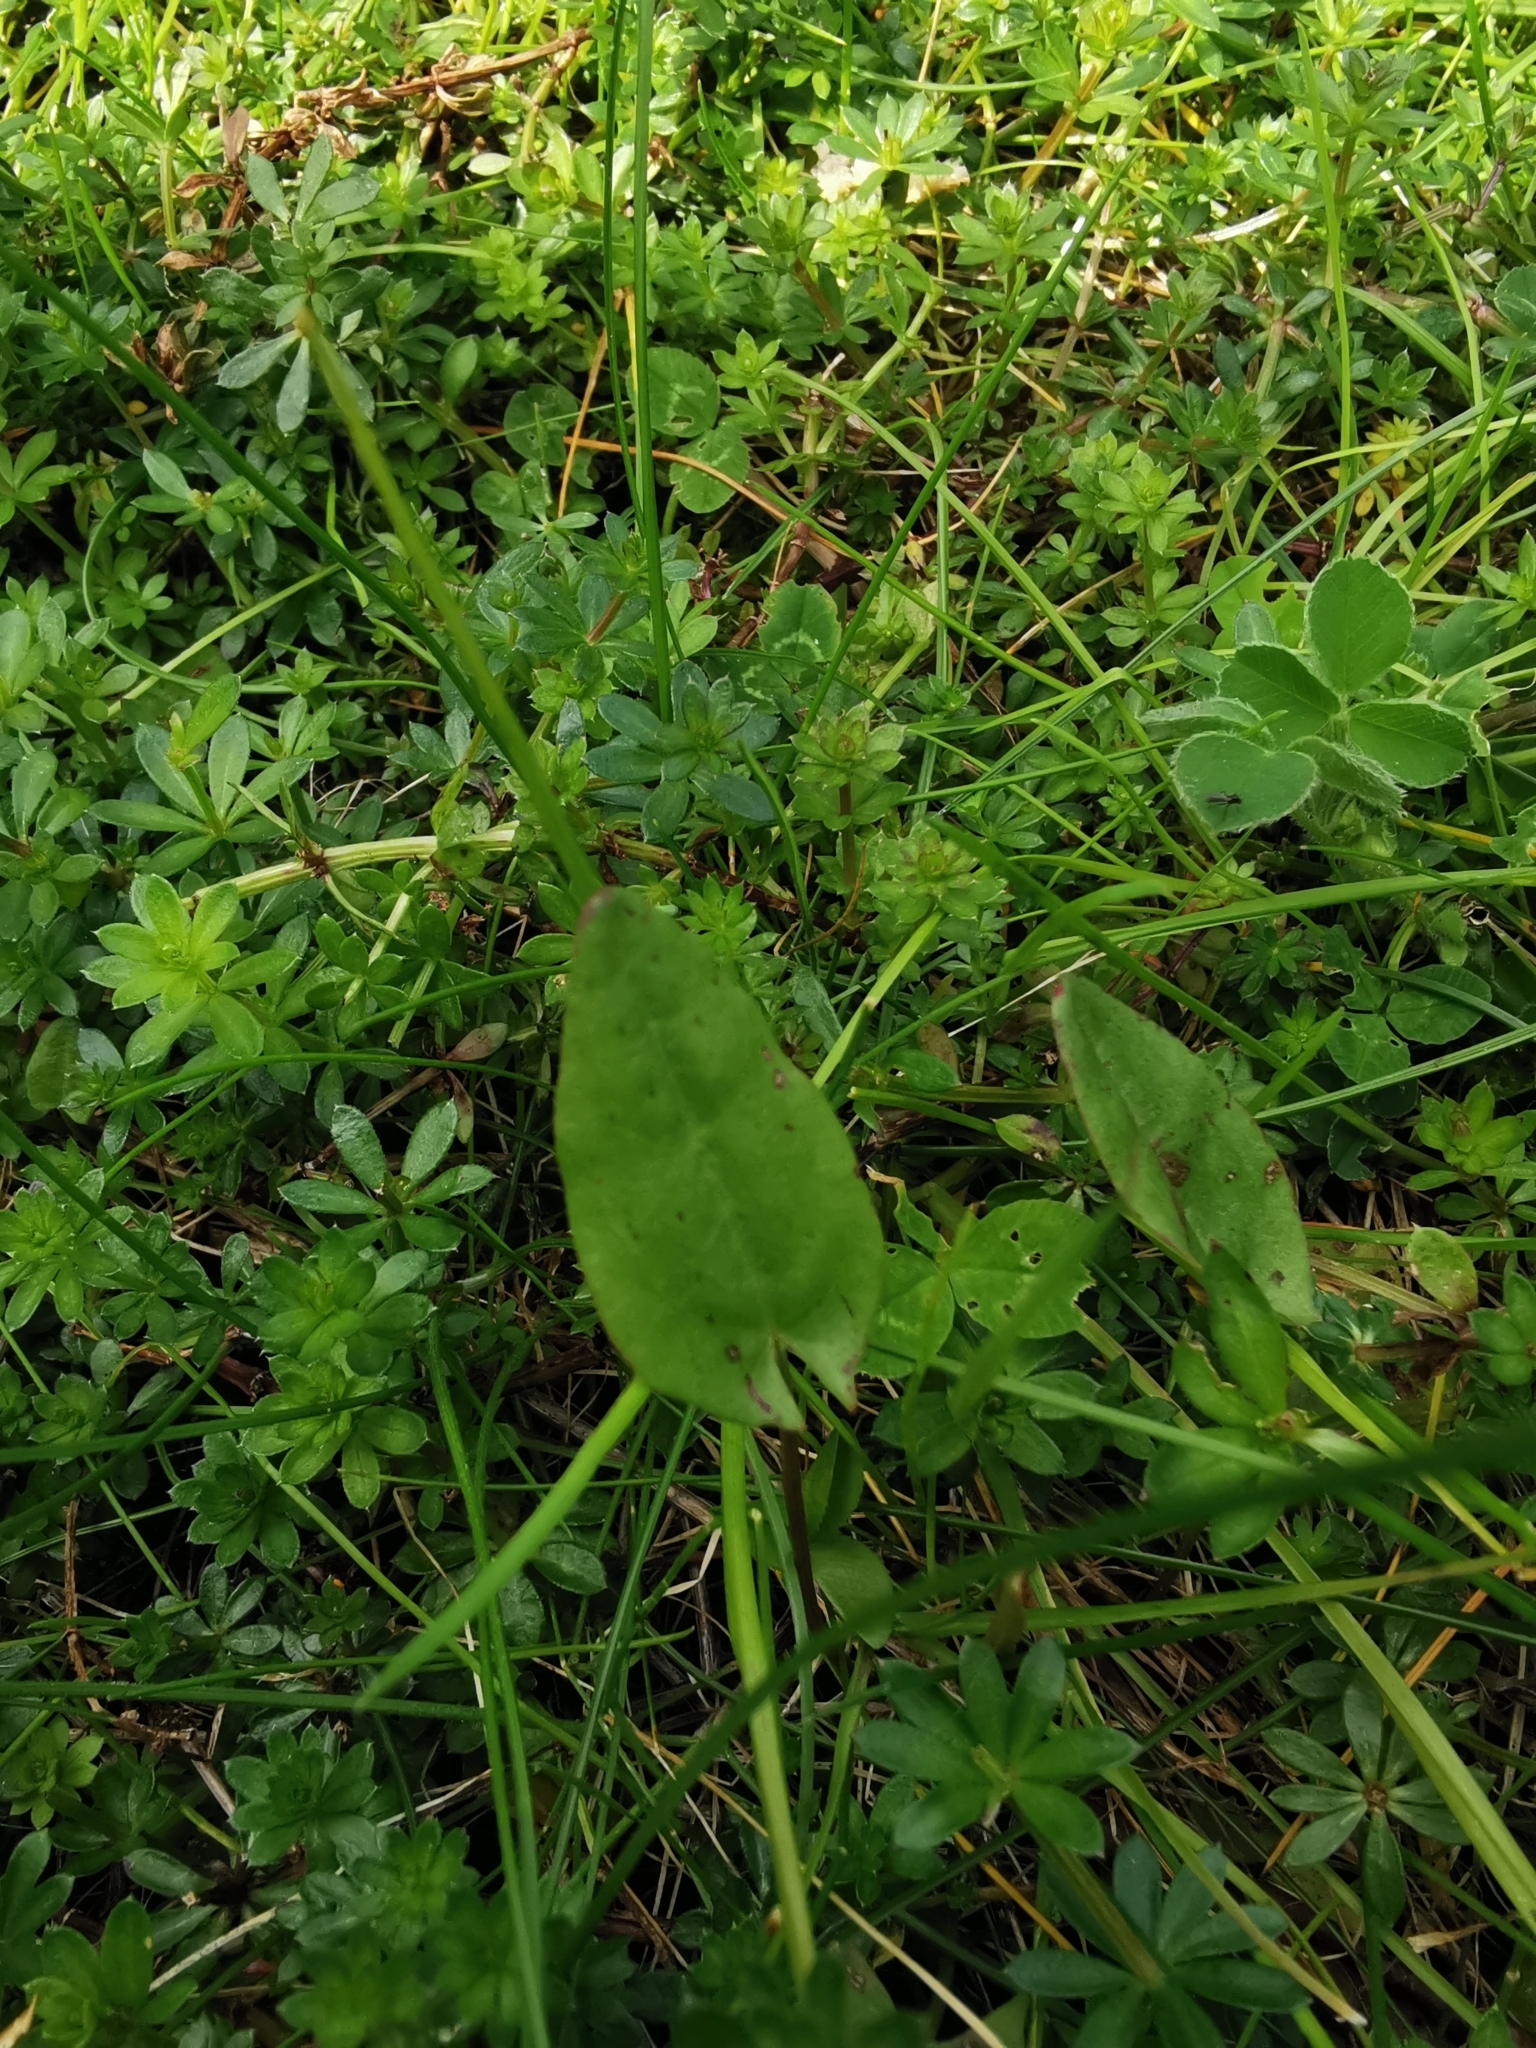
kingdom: Plantae
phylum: Tracheophyta
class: Magnoliopsida
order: Caryophyllales
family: Polygonaceae
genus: Rumex
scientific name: Rumex acetosa
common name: Garden sorrel
